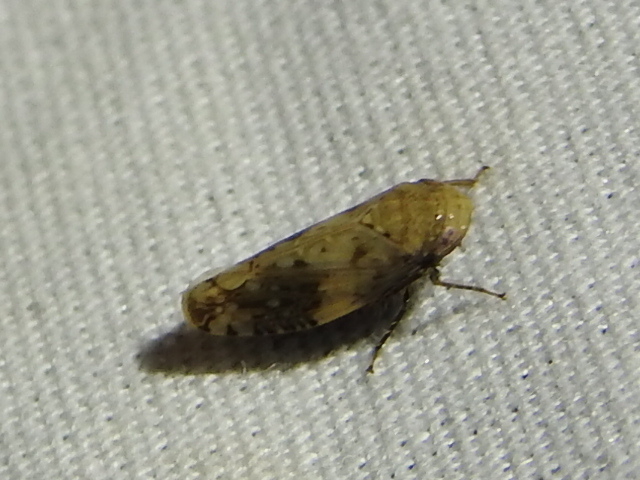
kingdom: Animalia
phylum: Arthropoda
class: Insecta
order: Hemiptera
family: Cicadellidae
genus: Menosoma
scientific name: Menosoma cinctum
